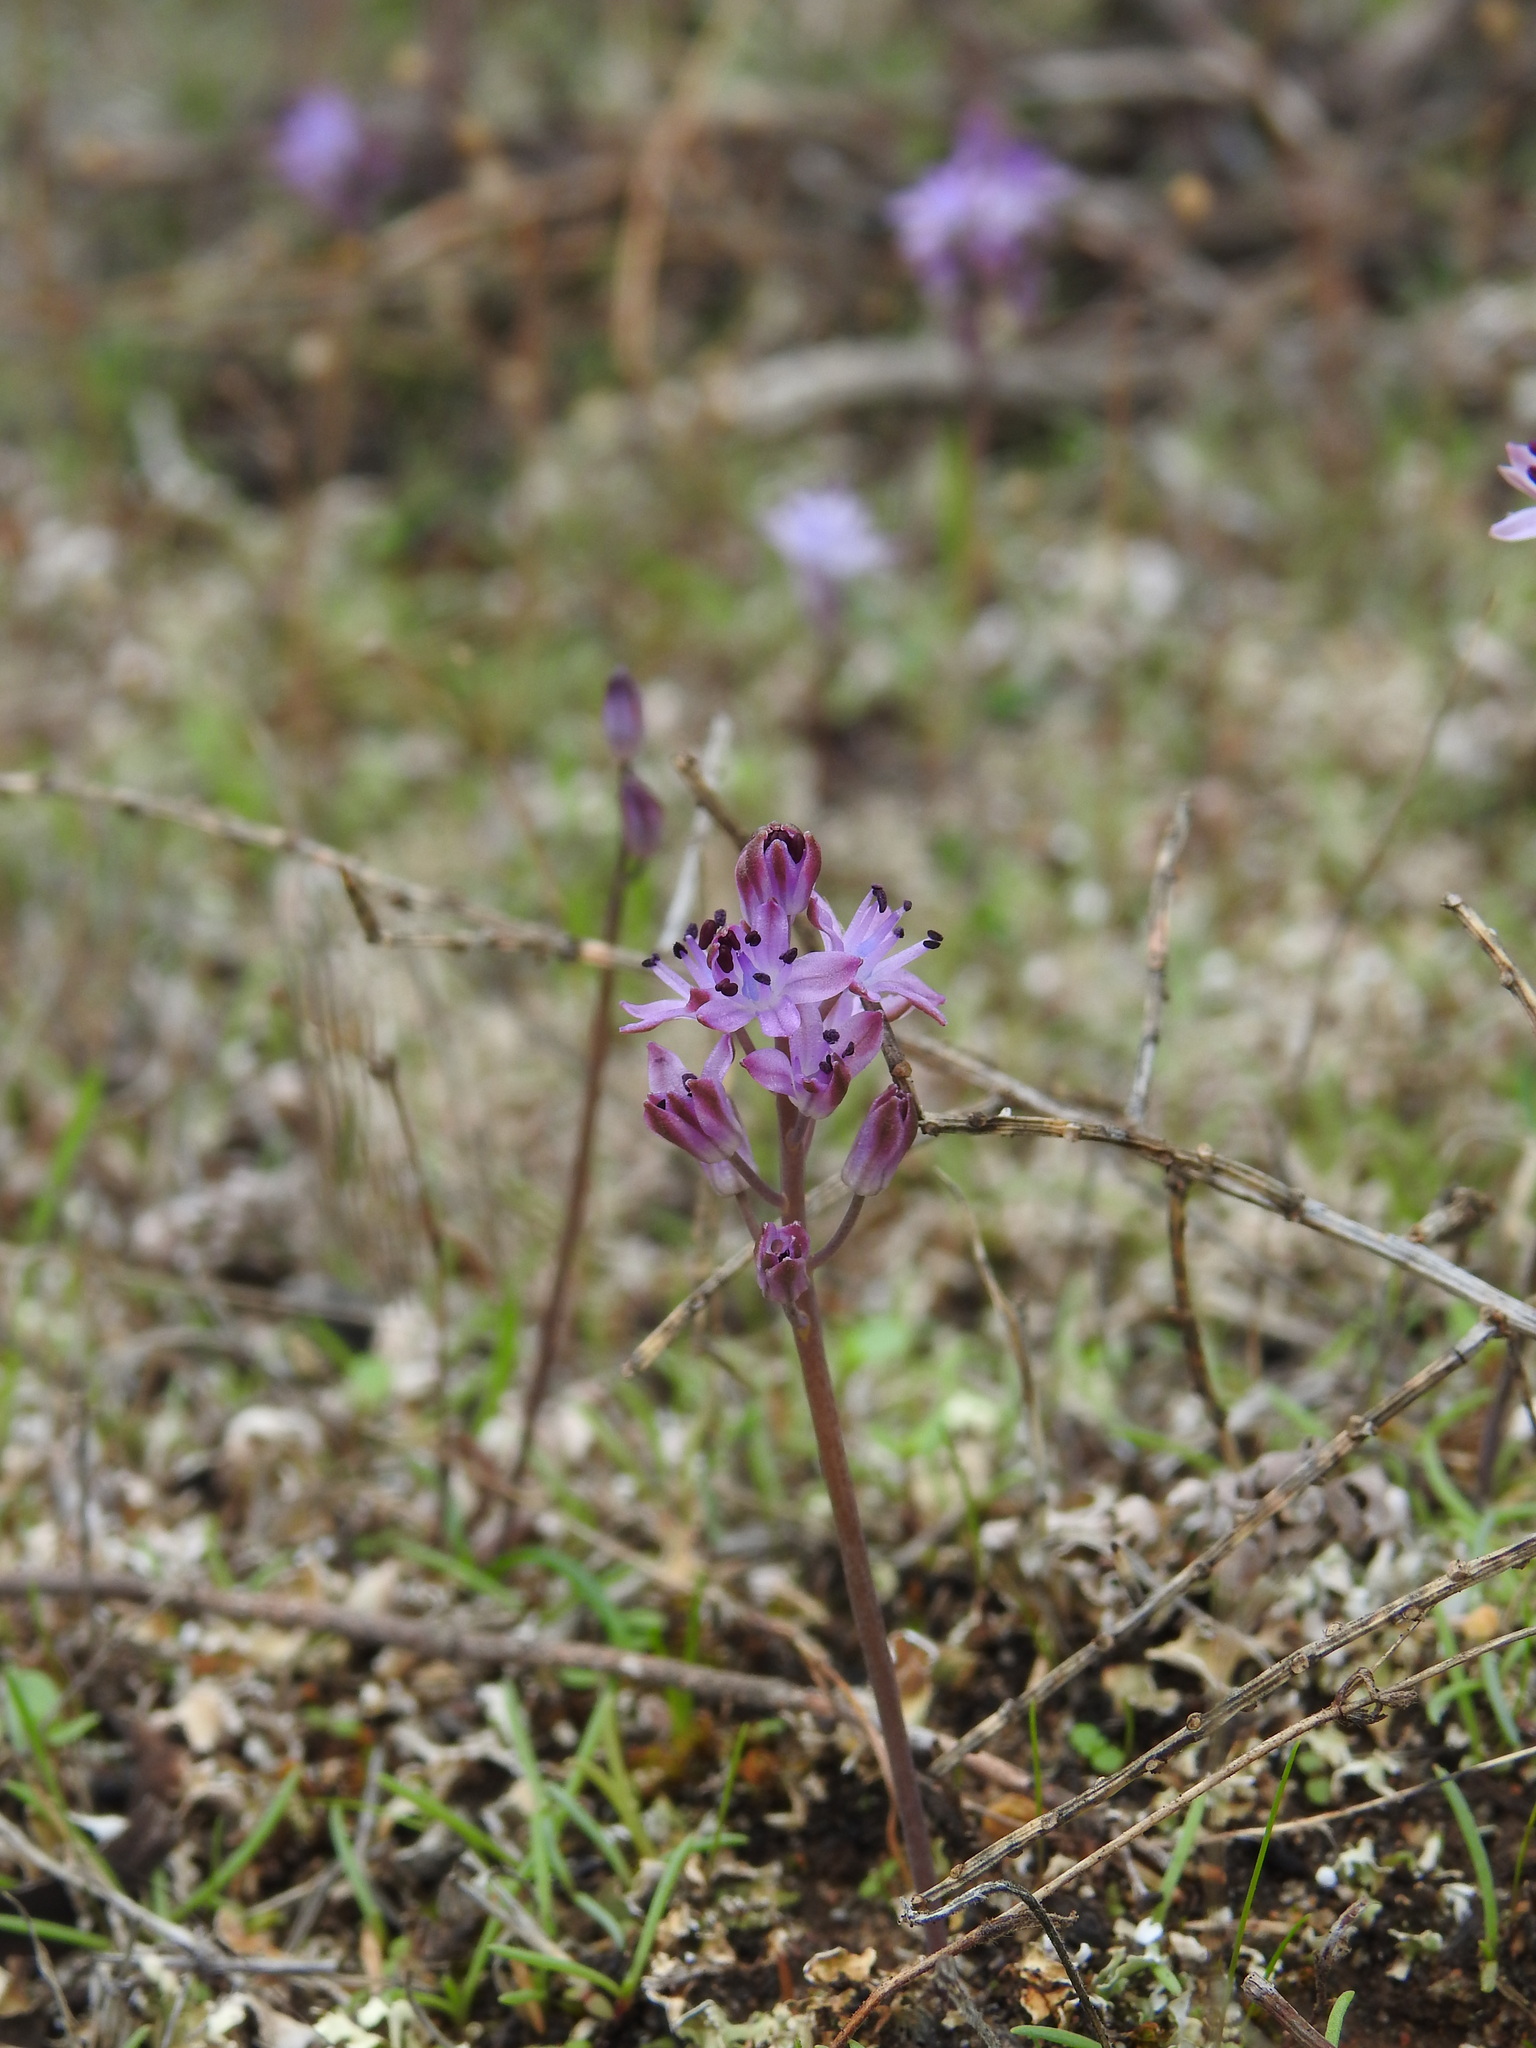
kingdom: Plantae
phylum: Tracheophyta
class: Liliopsida
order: Asparagales
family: Asparagaceae
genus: Prospero
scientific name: Prospero autumnale
